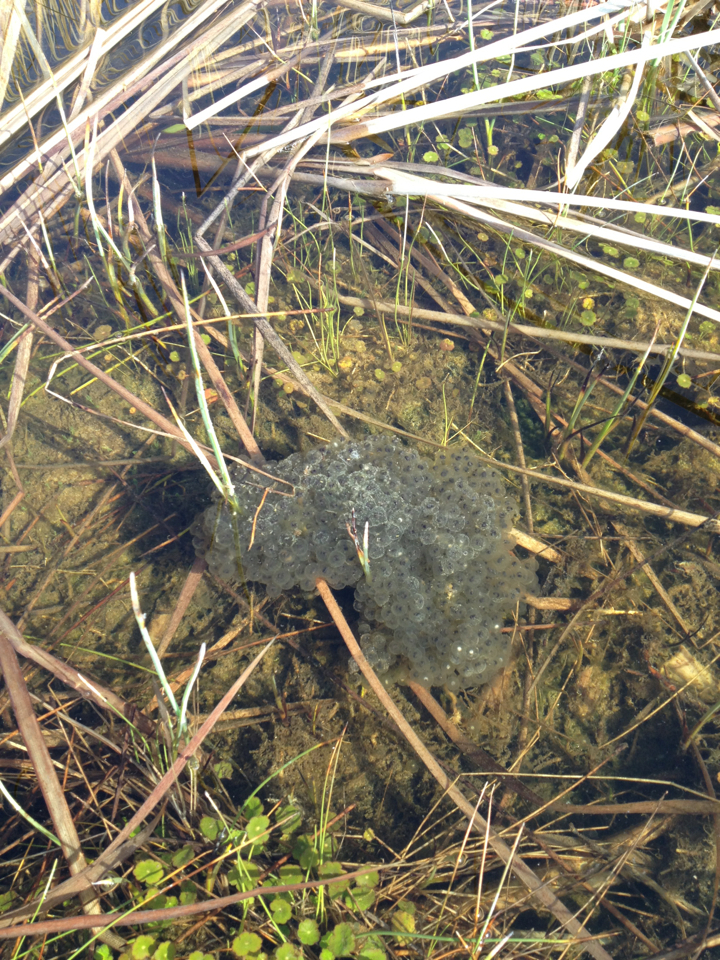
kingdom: Animalia
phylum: Chordata
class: Amphibia
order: Anura
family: Ranidae
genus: Rana
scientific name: Rana draytonii
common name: California red-legged frog
